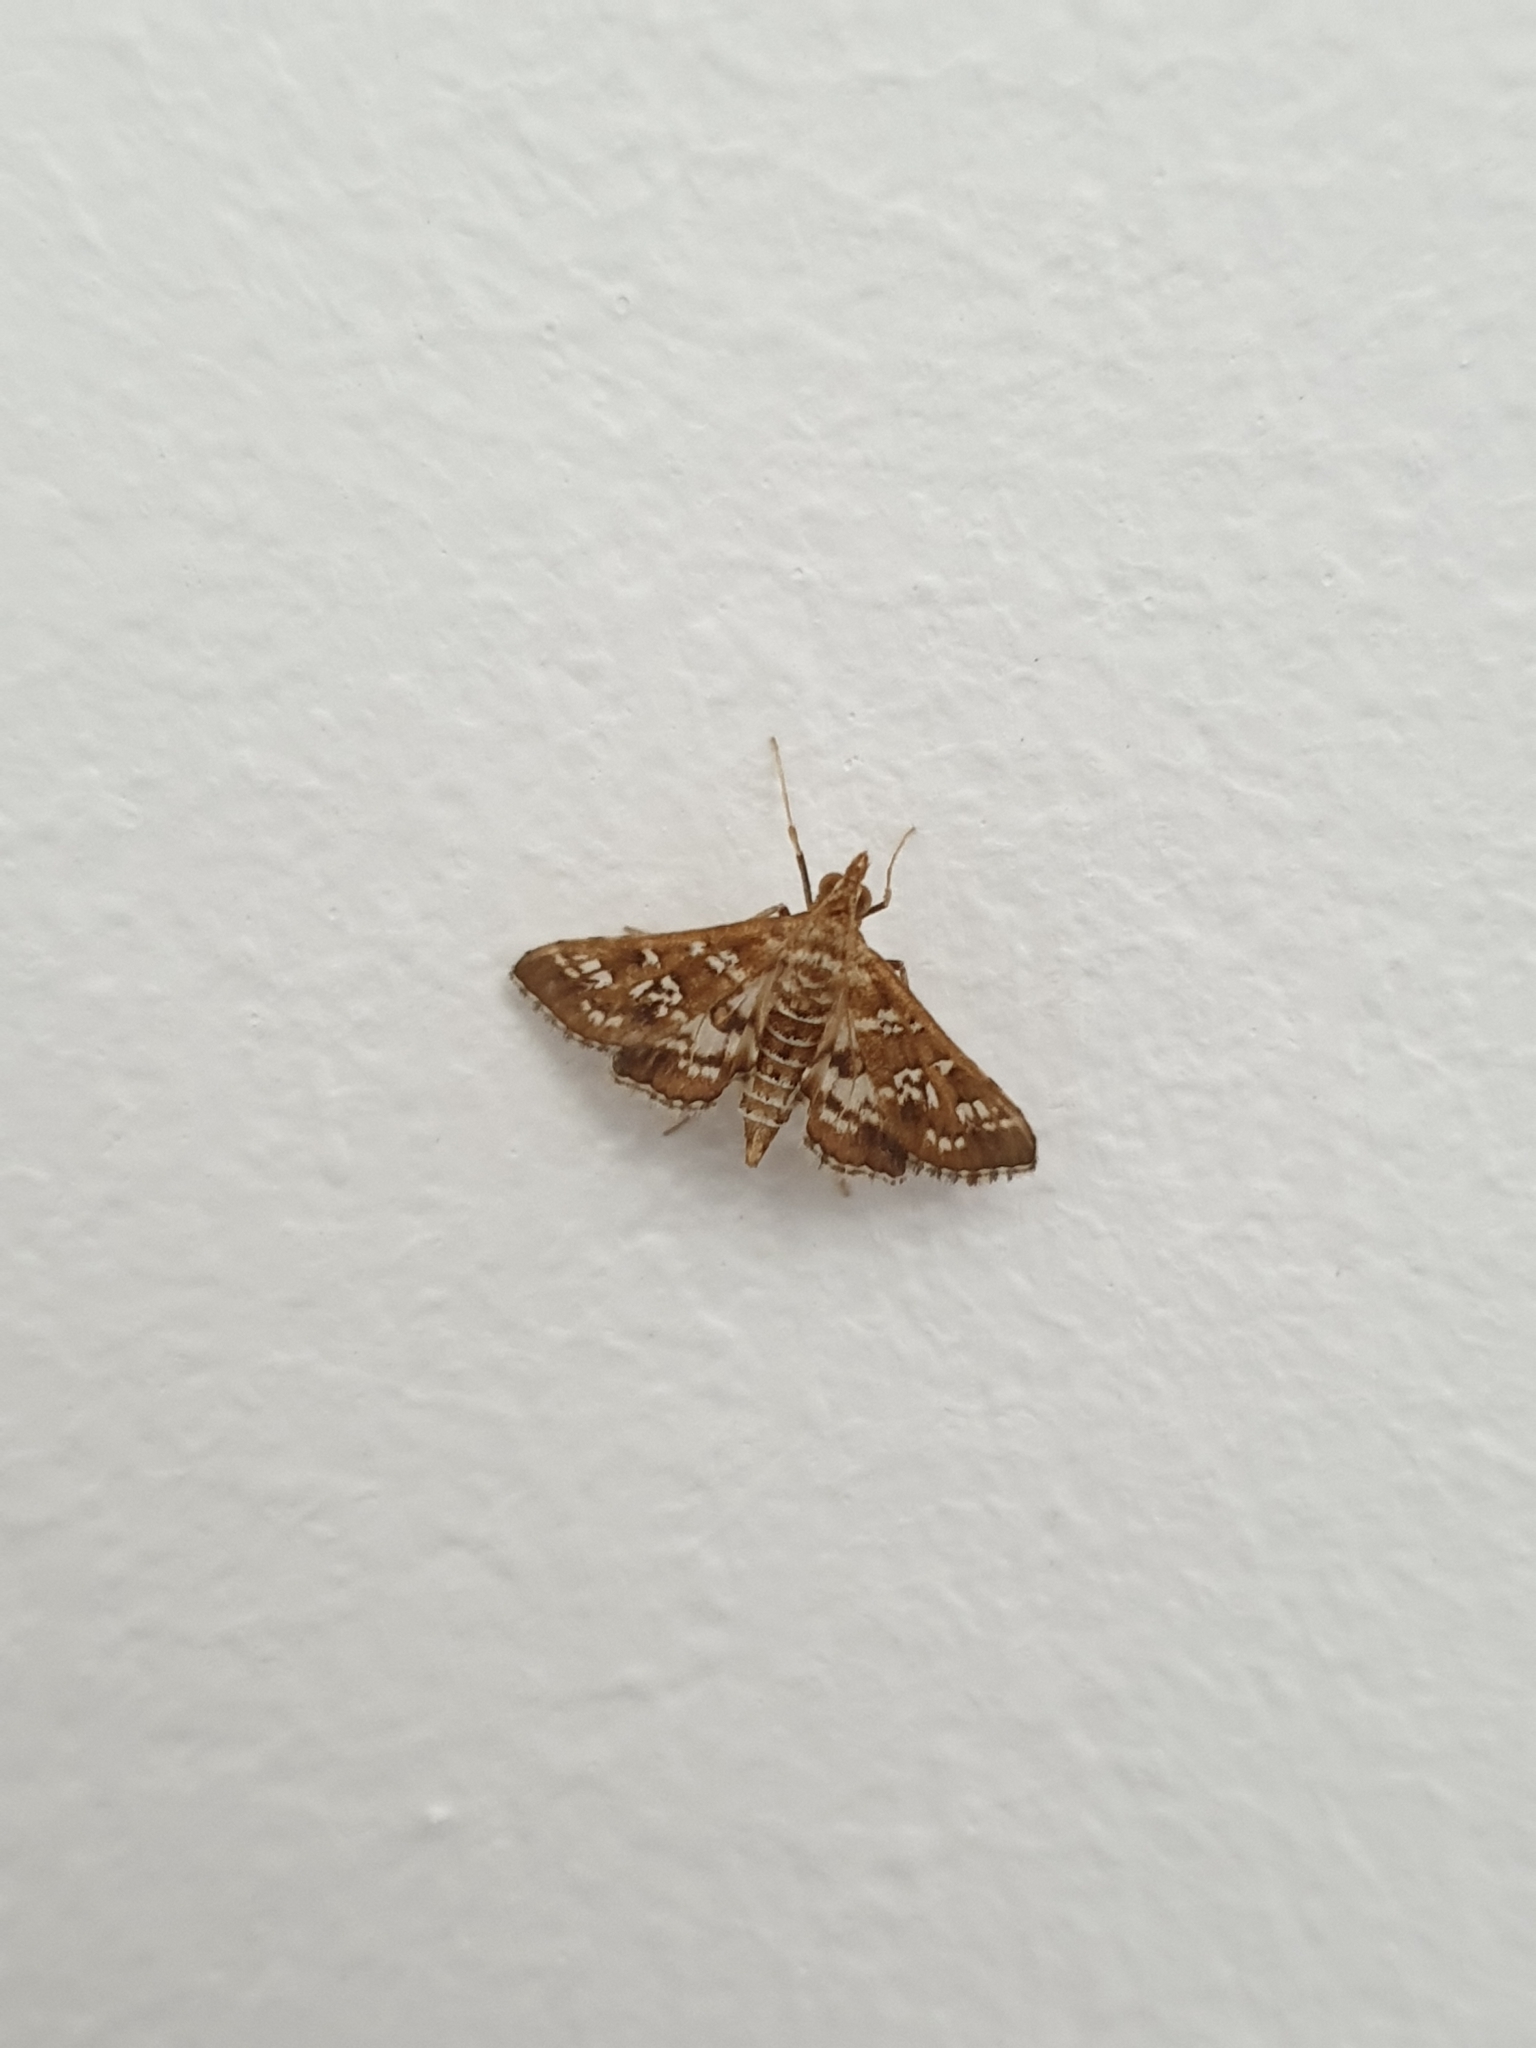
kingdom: Animalia
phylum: Arthropoda
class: Insecta
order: Lepidoptera
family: Crambidae
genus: Sameodes
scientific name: Sameodes cancellalis
